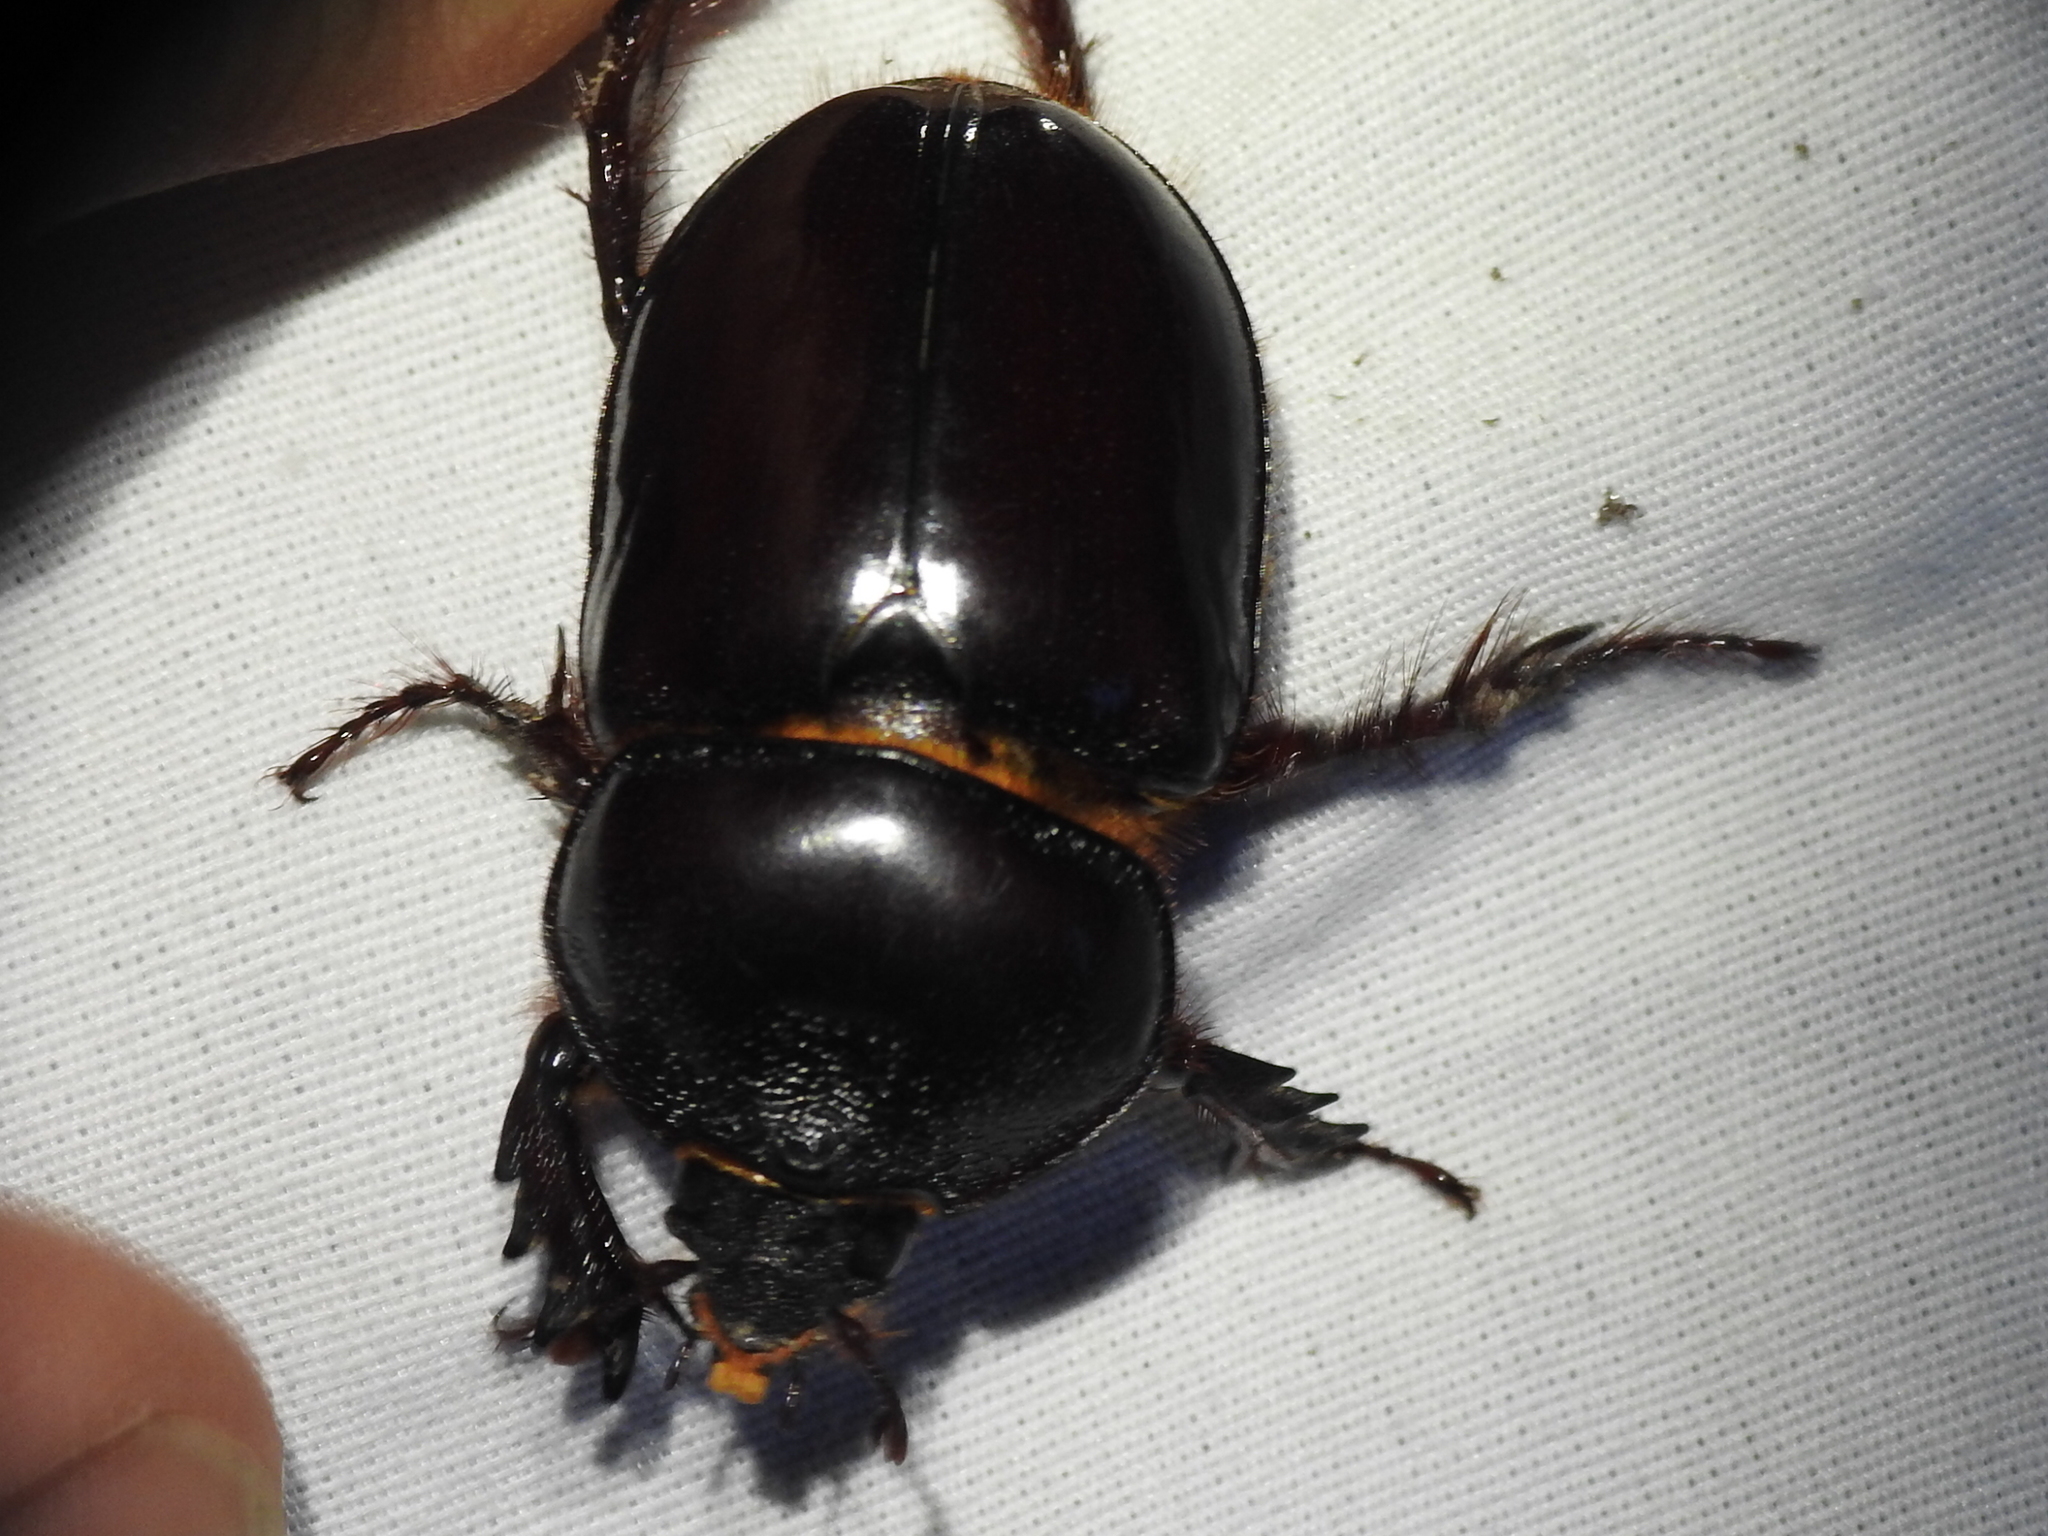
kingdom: Animalia
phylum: Arthropoda
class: Insecta
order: Coleoptera
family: Scarabaeidae
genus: Strategus
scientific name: Strategus antaeus
